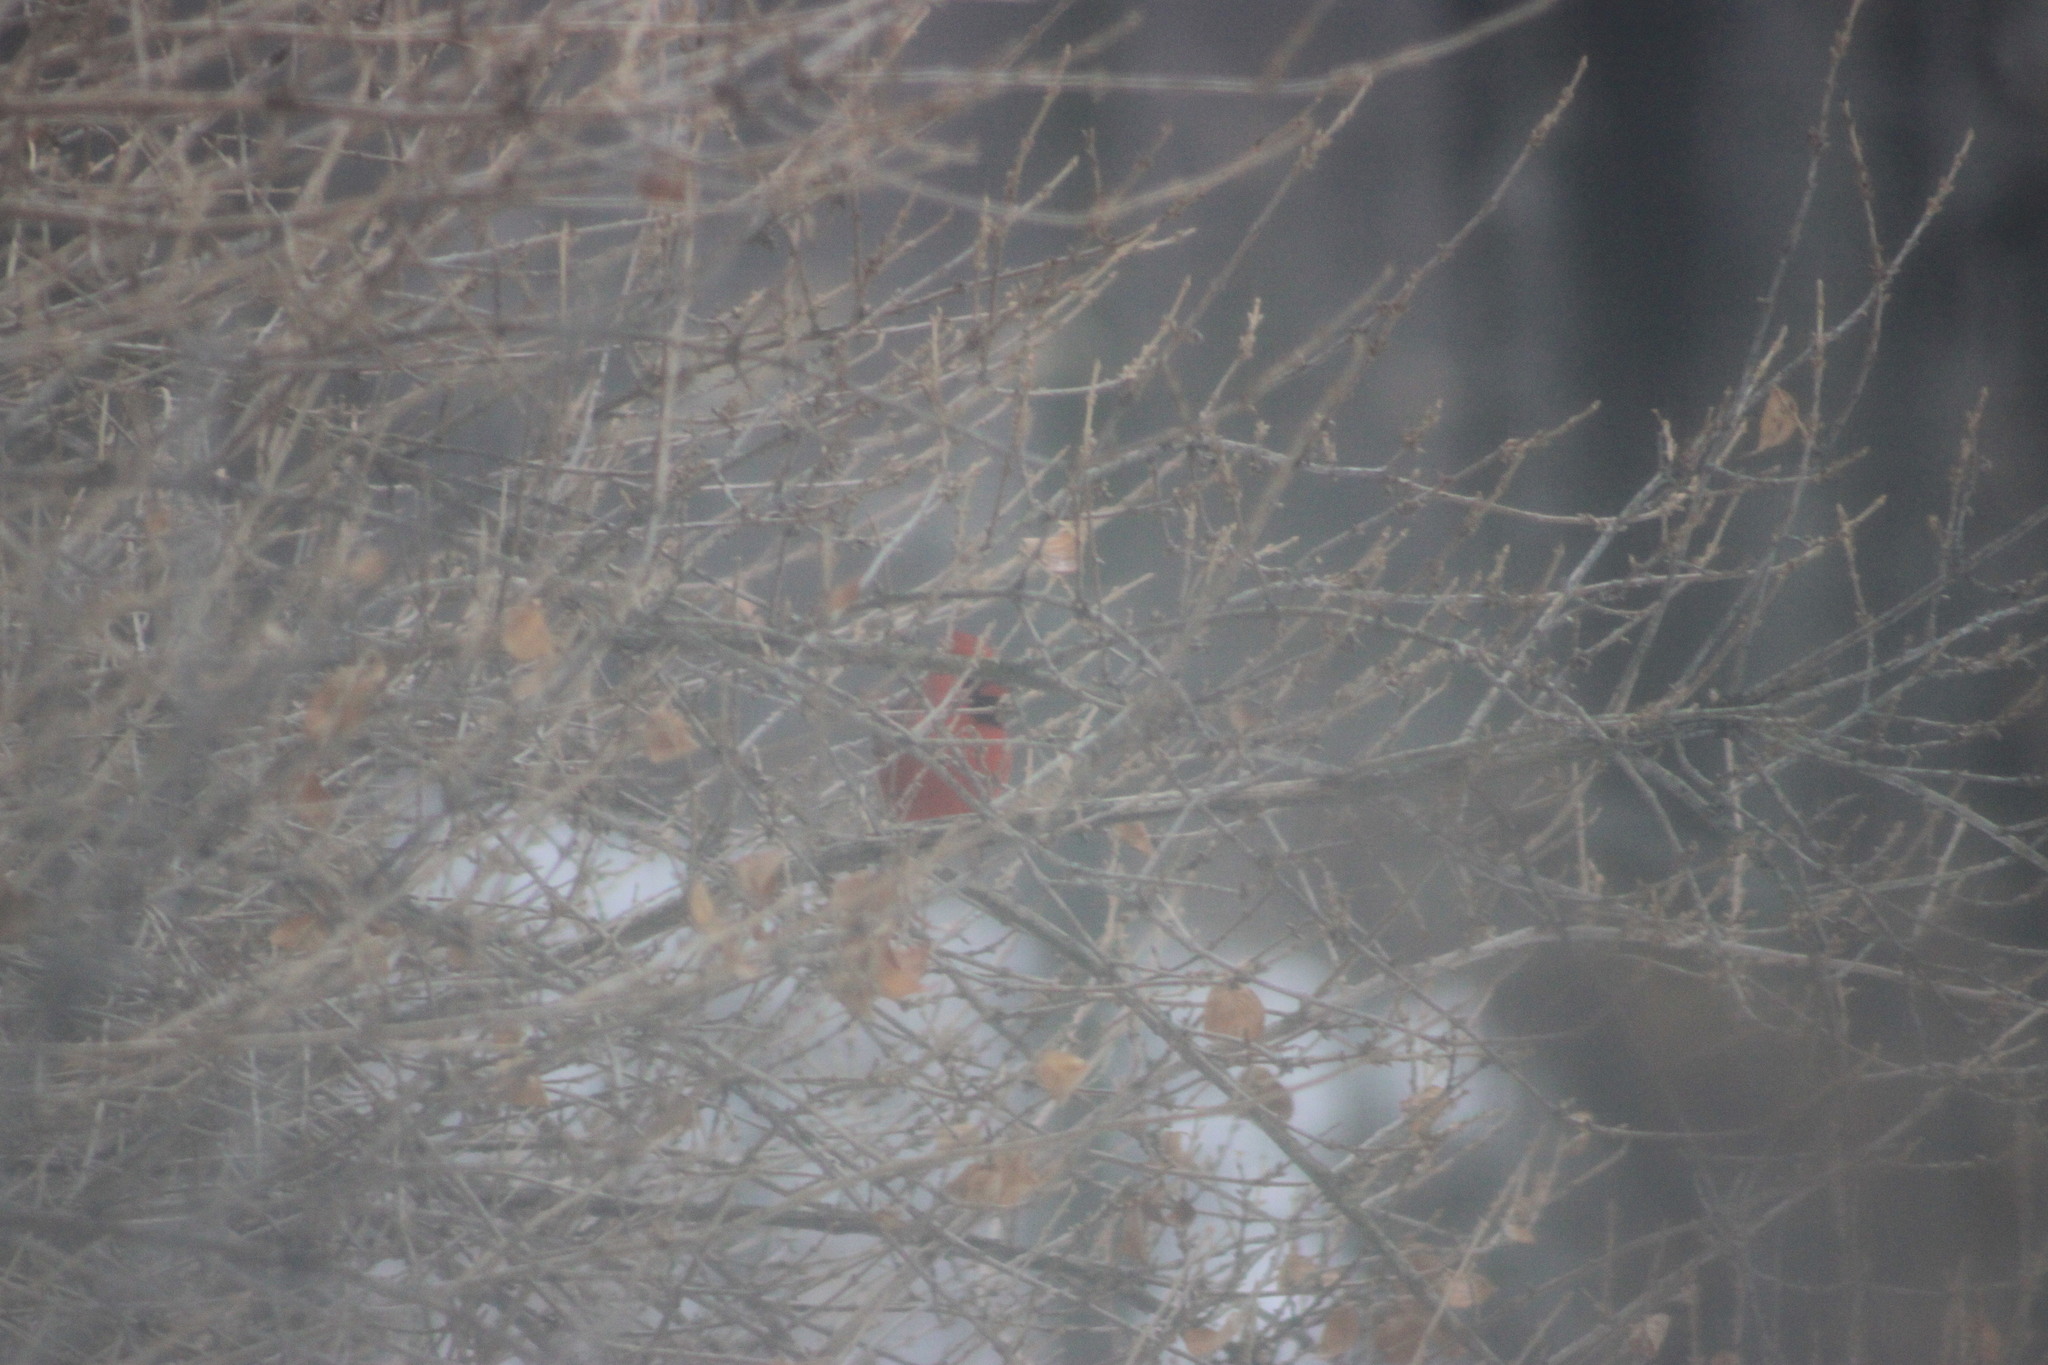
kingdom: Animalia
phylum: Chordata
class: Aves
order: Passeriformes
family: Cardinalidae
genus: Cardinalis
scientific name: Cardinalis cardinalis
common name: Northern cardinal
